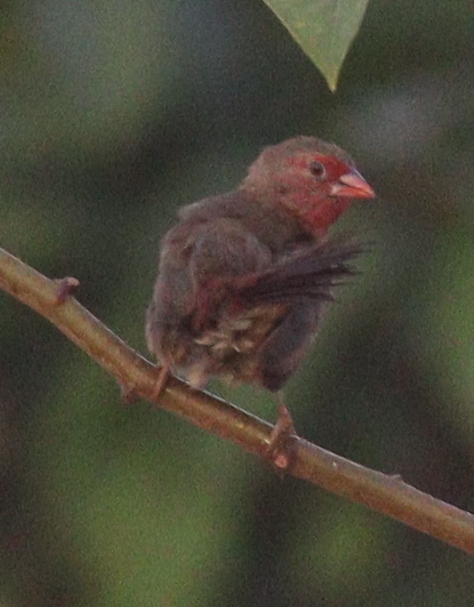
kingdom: Animalia
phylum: Chordata
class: Aves
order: Passeriformes
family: Estrildidae
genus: Lagonosticta
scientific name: Lagonosticta rufopicta
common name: Bar-breasted firefinch
